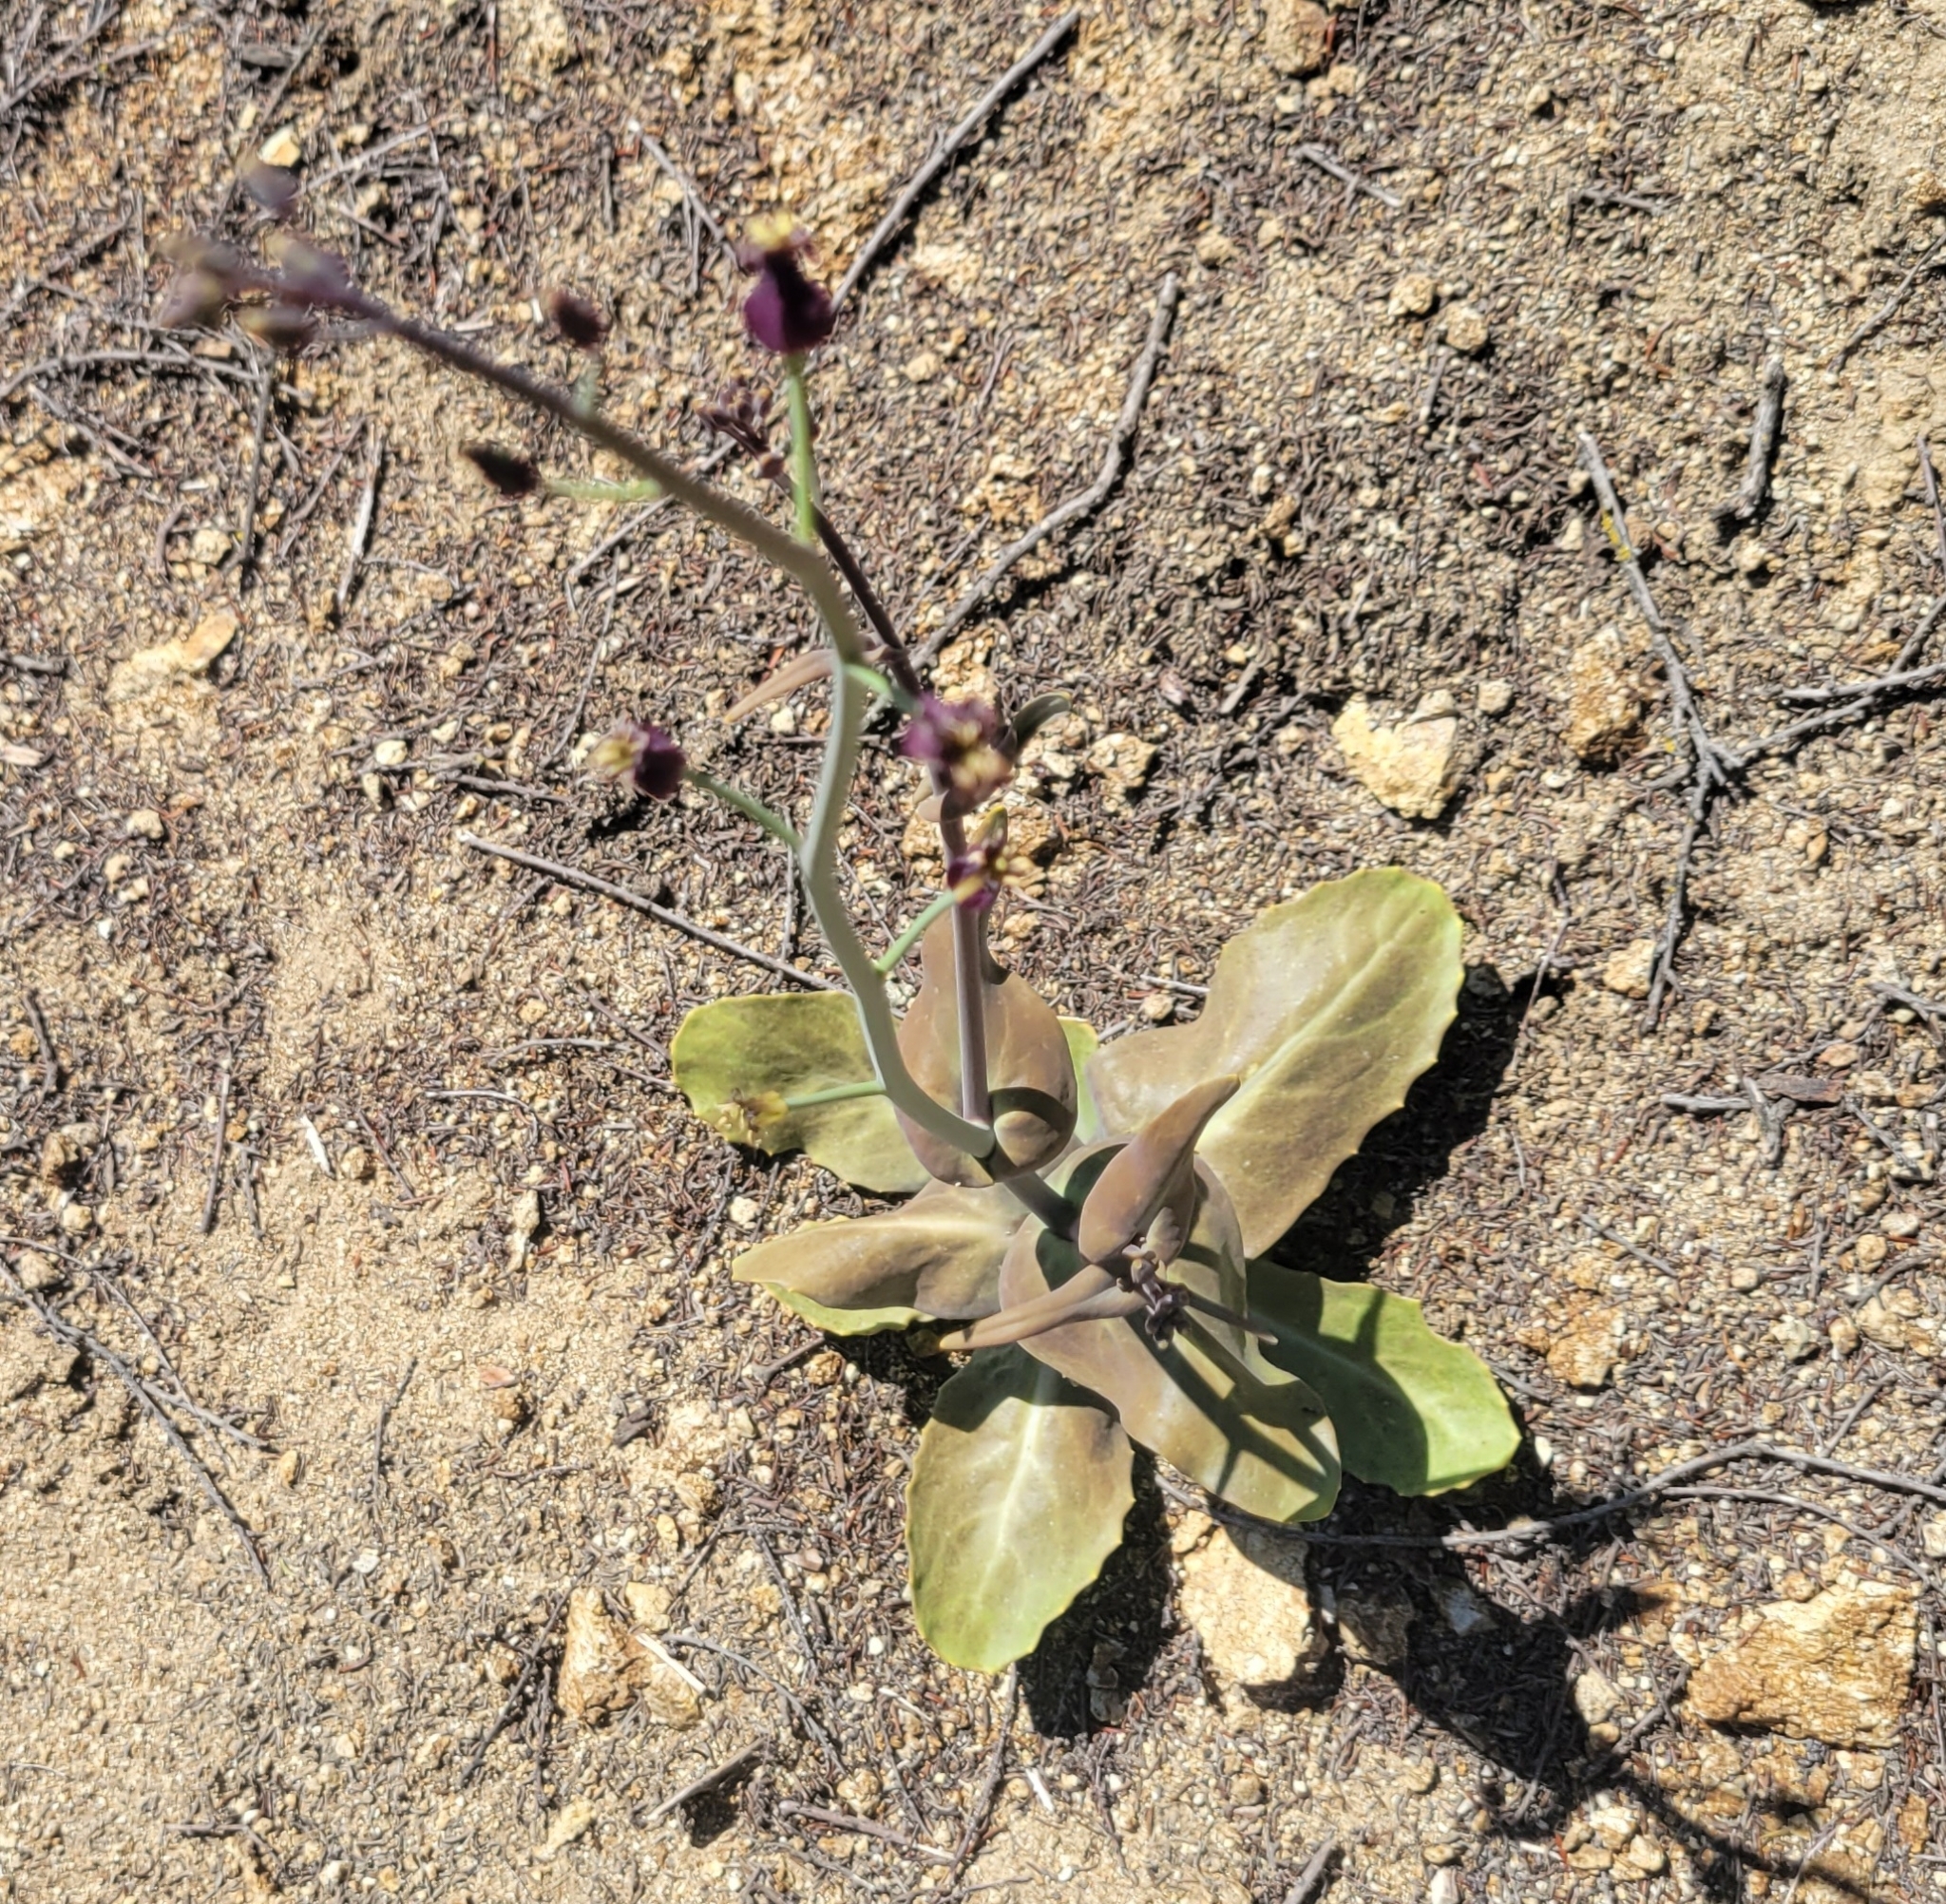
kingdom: Plantae
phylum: Tracheophyta
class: Magnoliopsida
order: Brassicales
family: Brassicaceae
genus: Streptanthus
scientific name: Streptanthus amplexicaulis
